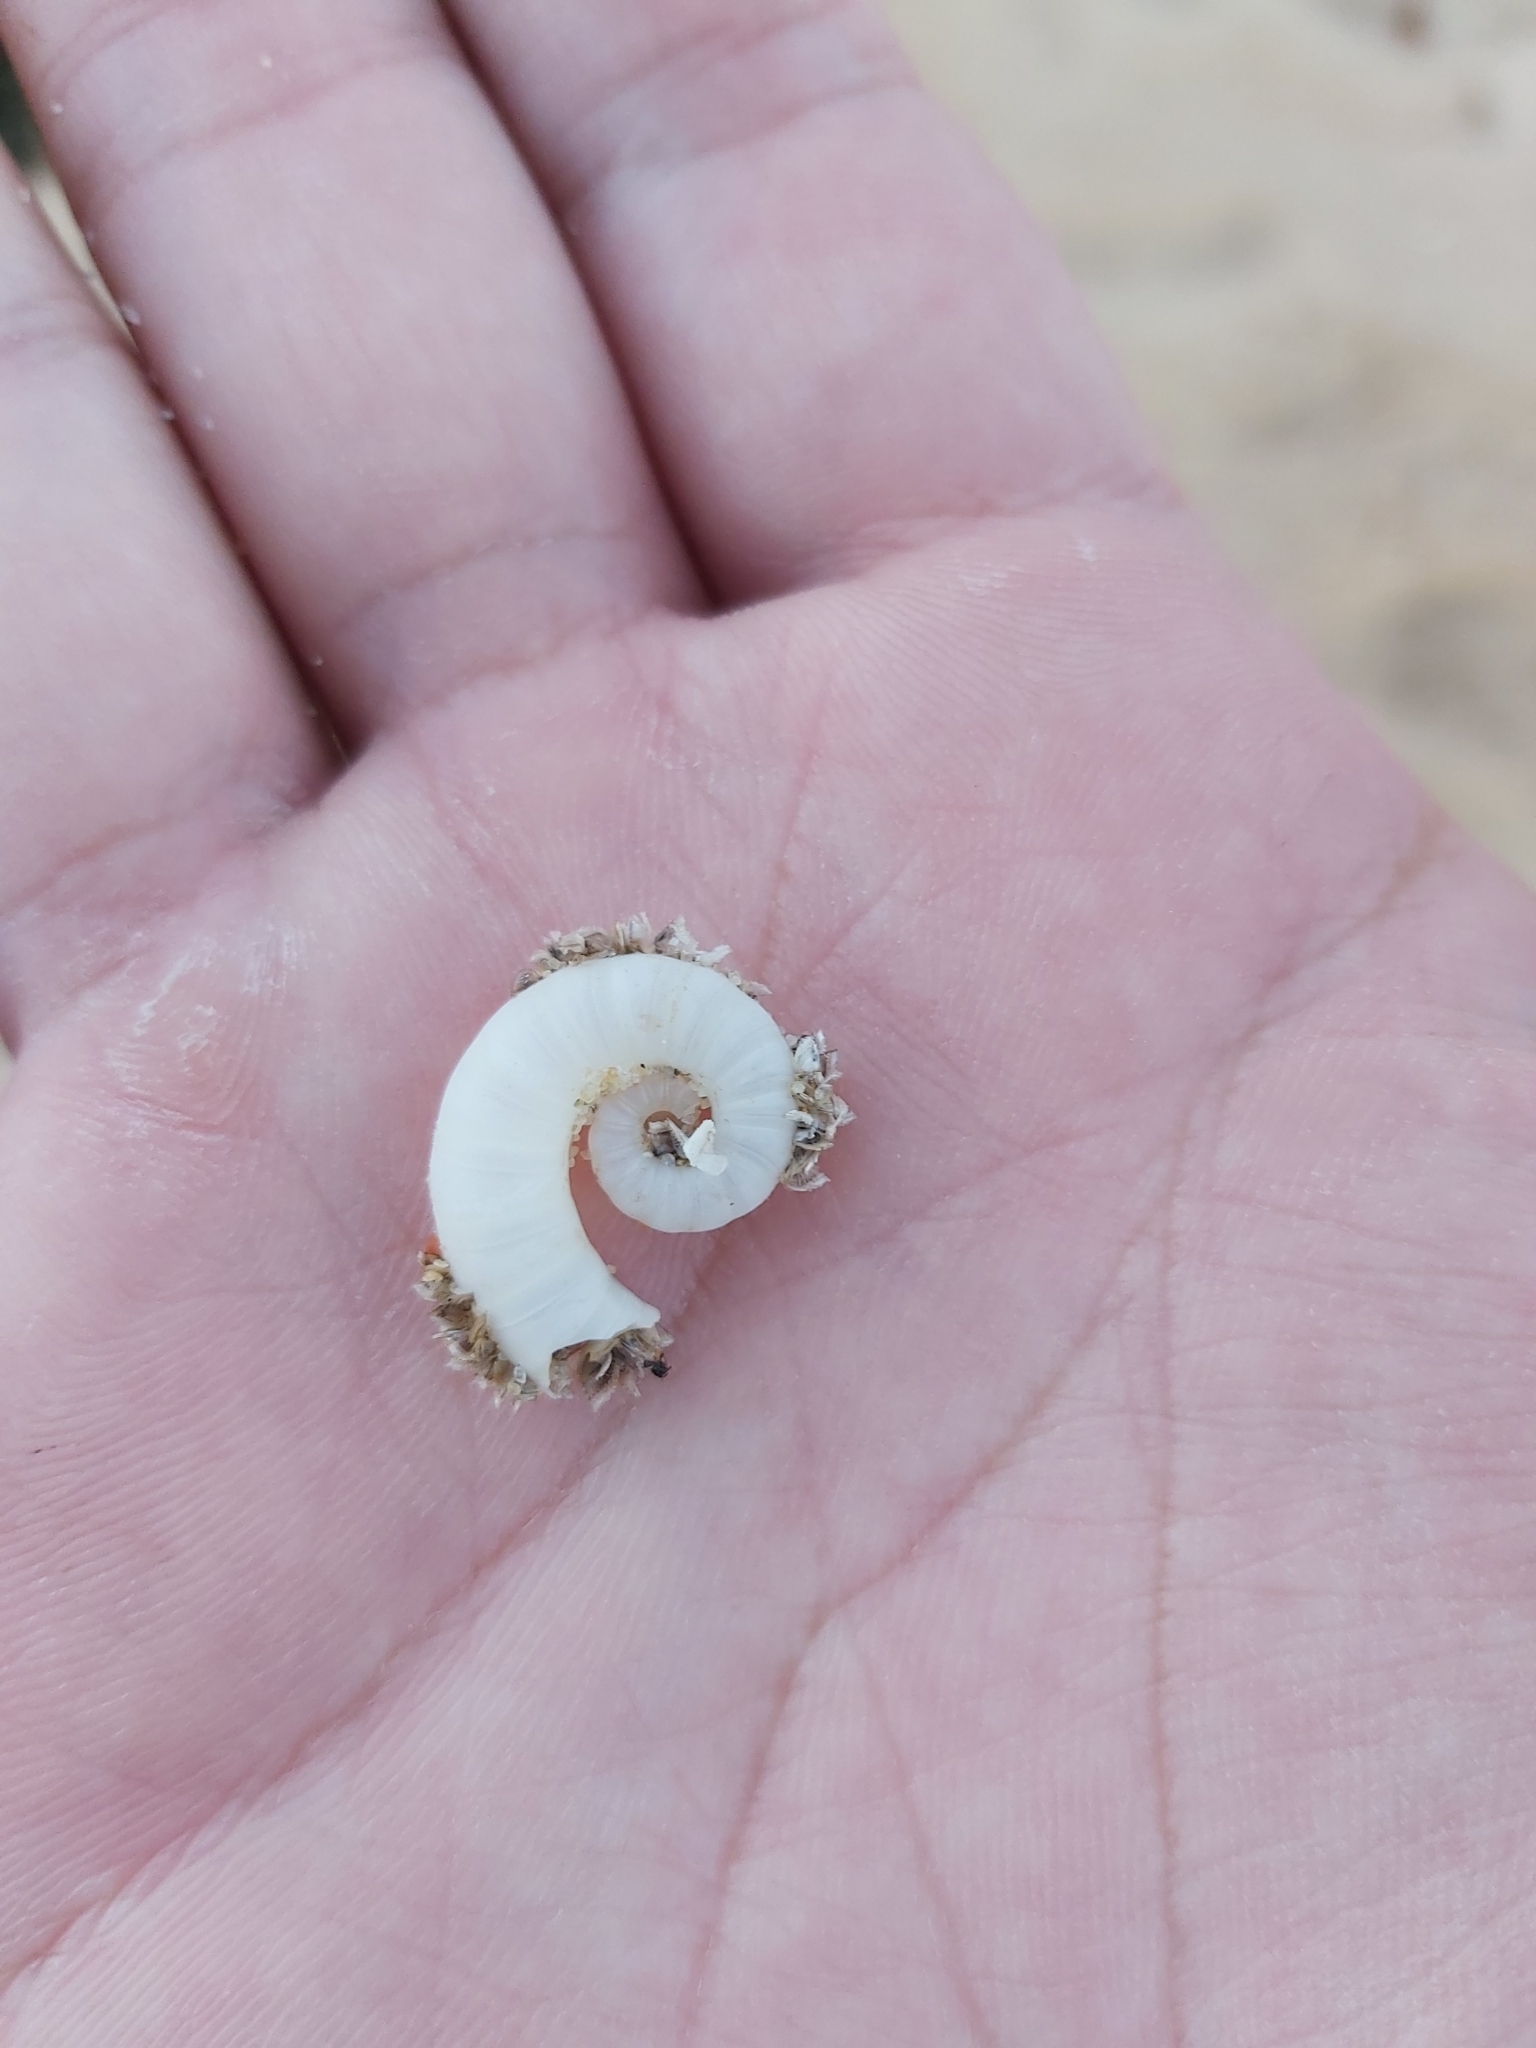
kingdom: Animalia
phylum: Mollusca
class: Cephalopoda
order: Spirulida
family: Spirulidae
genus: Spirula
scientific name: Spirula spirula
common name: Ram's horn squid
